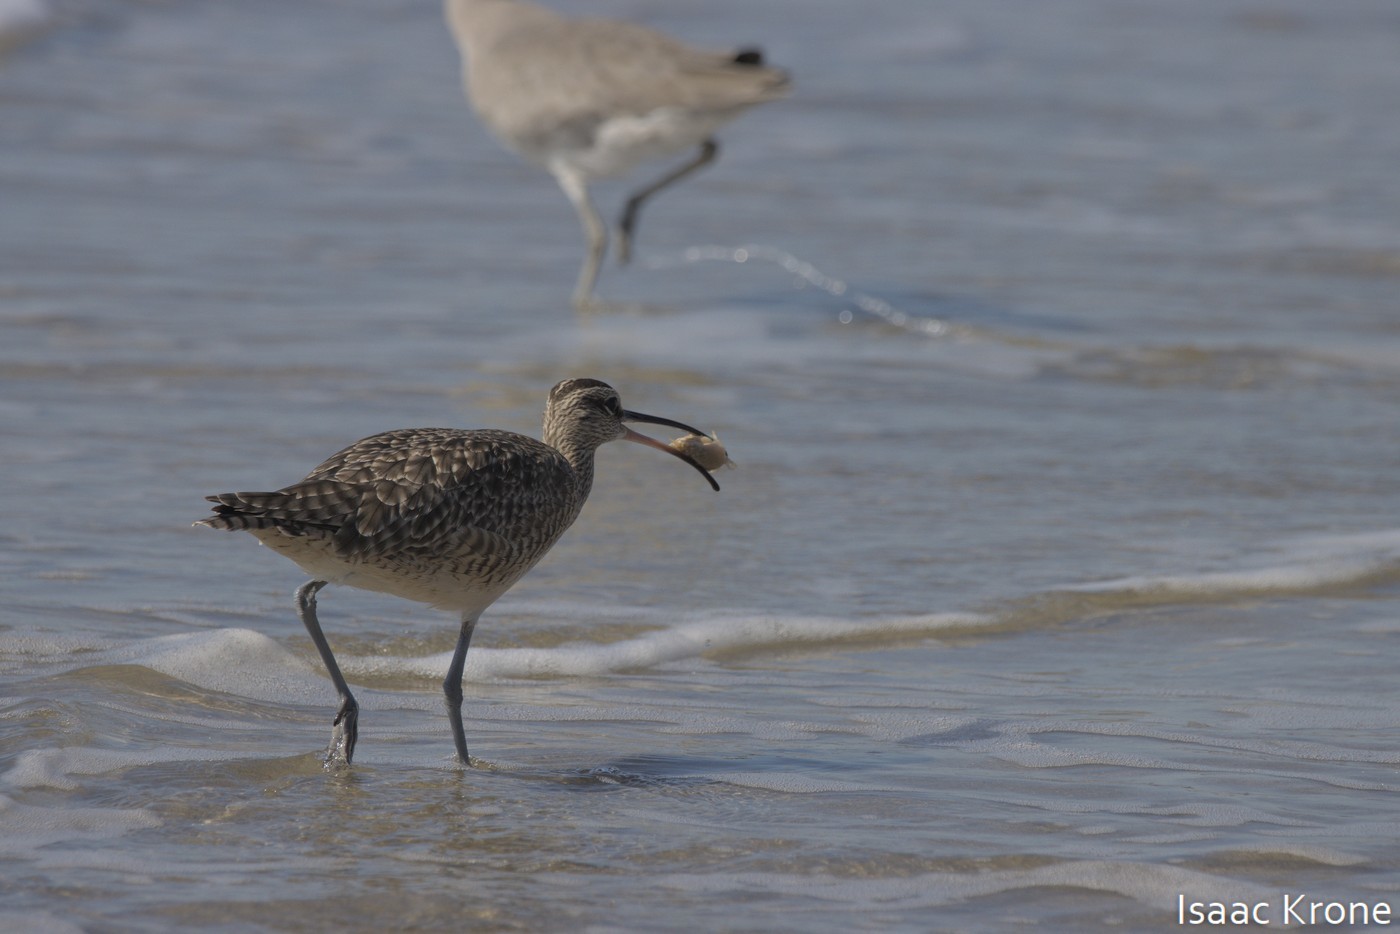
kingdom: Animalia
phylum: Chordata
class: Aves
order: Charadriiformes
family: Scolopacidae
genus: Numenius
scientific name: Numenius phaeopus
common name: Whimbrel
